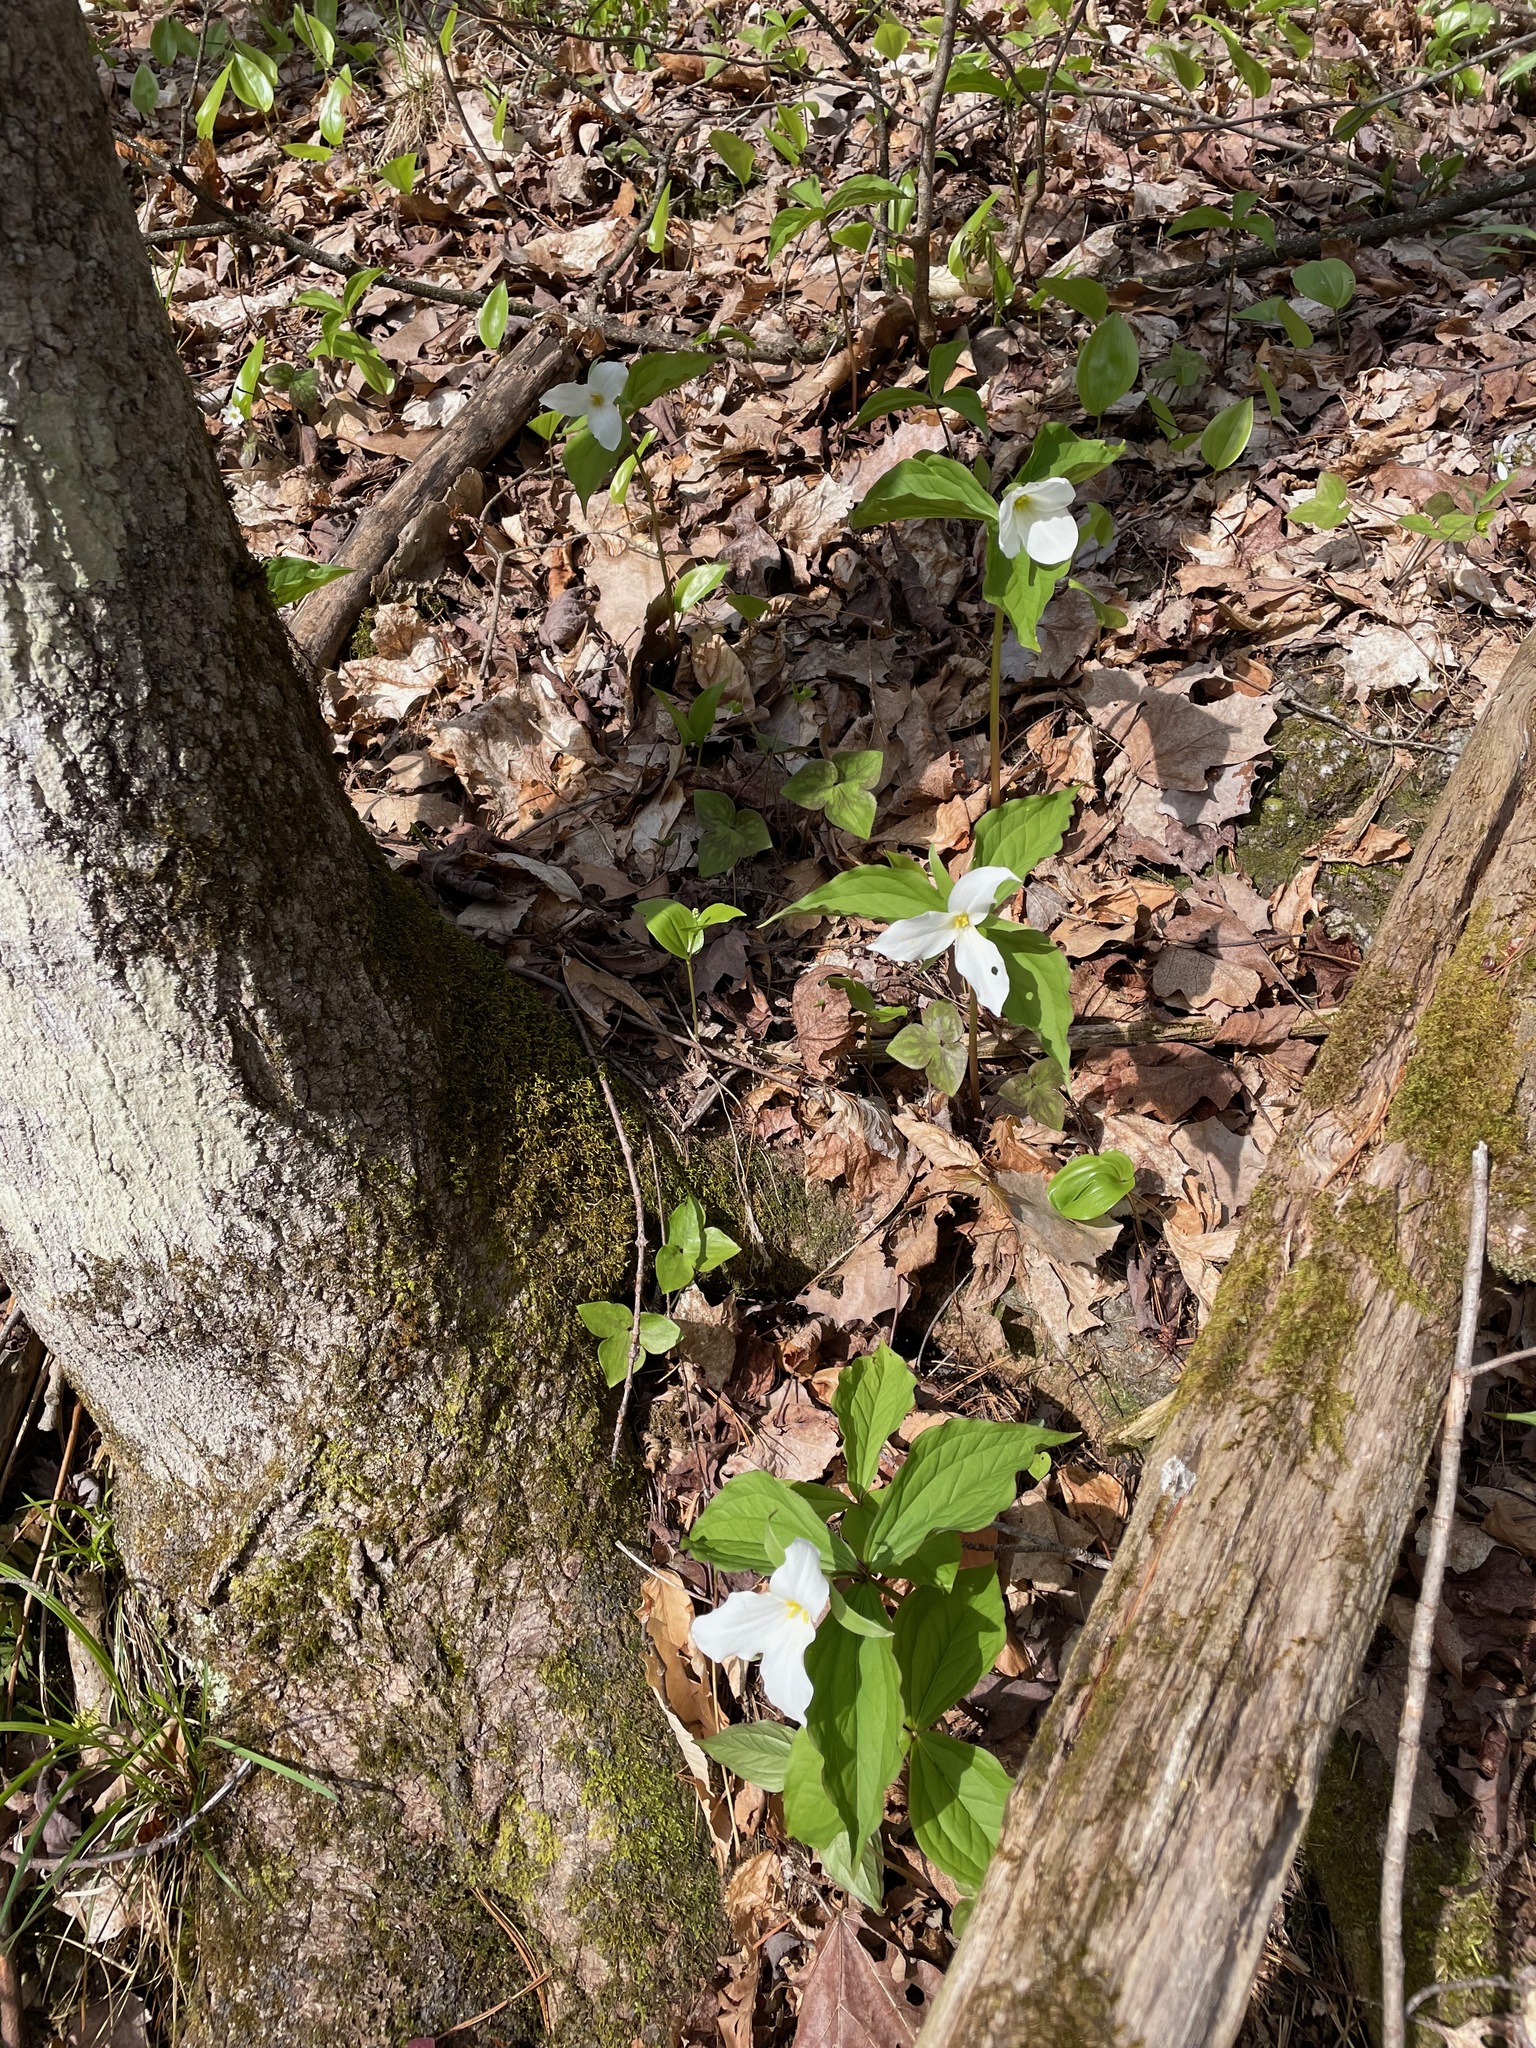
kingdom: Plantae
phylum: Tracheophyta
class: Liliopsida
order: Liliales
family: Melanthiaceae
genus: Trillium
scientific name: Trillium grandiflorum
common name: Great white trillium
